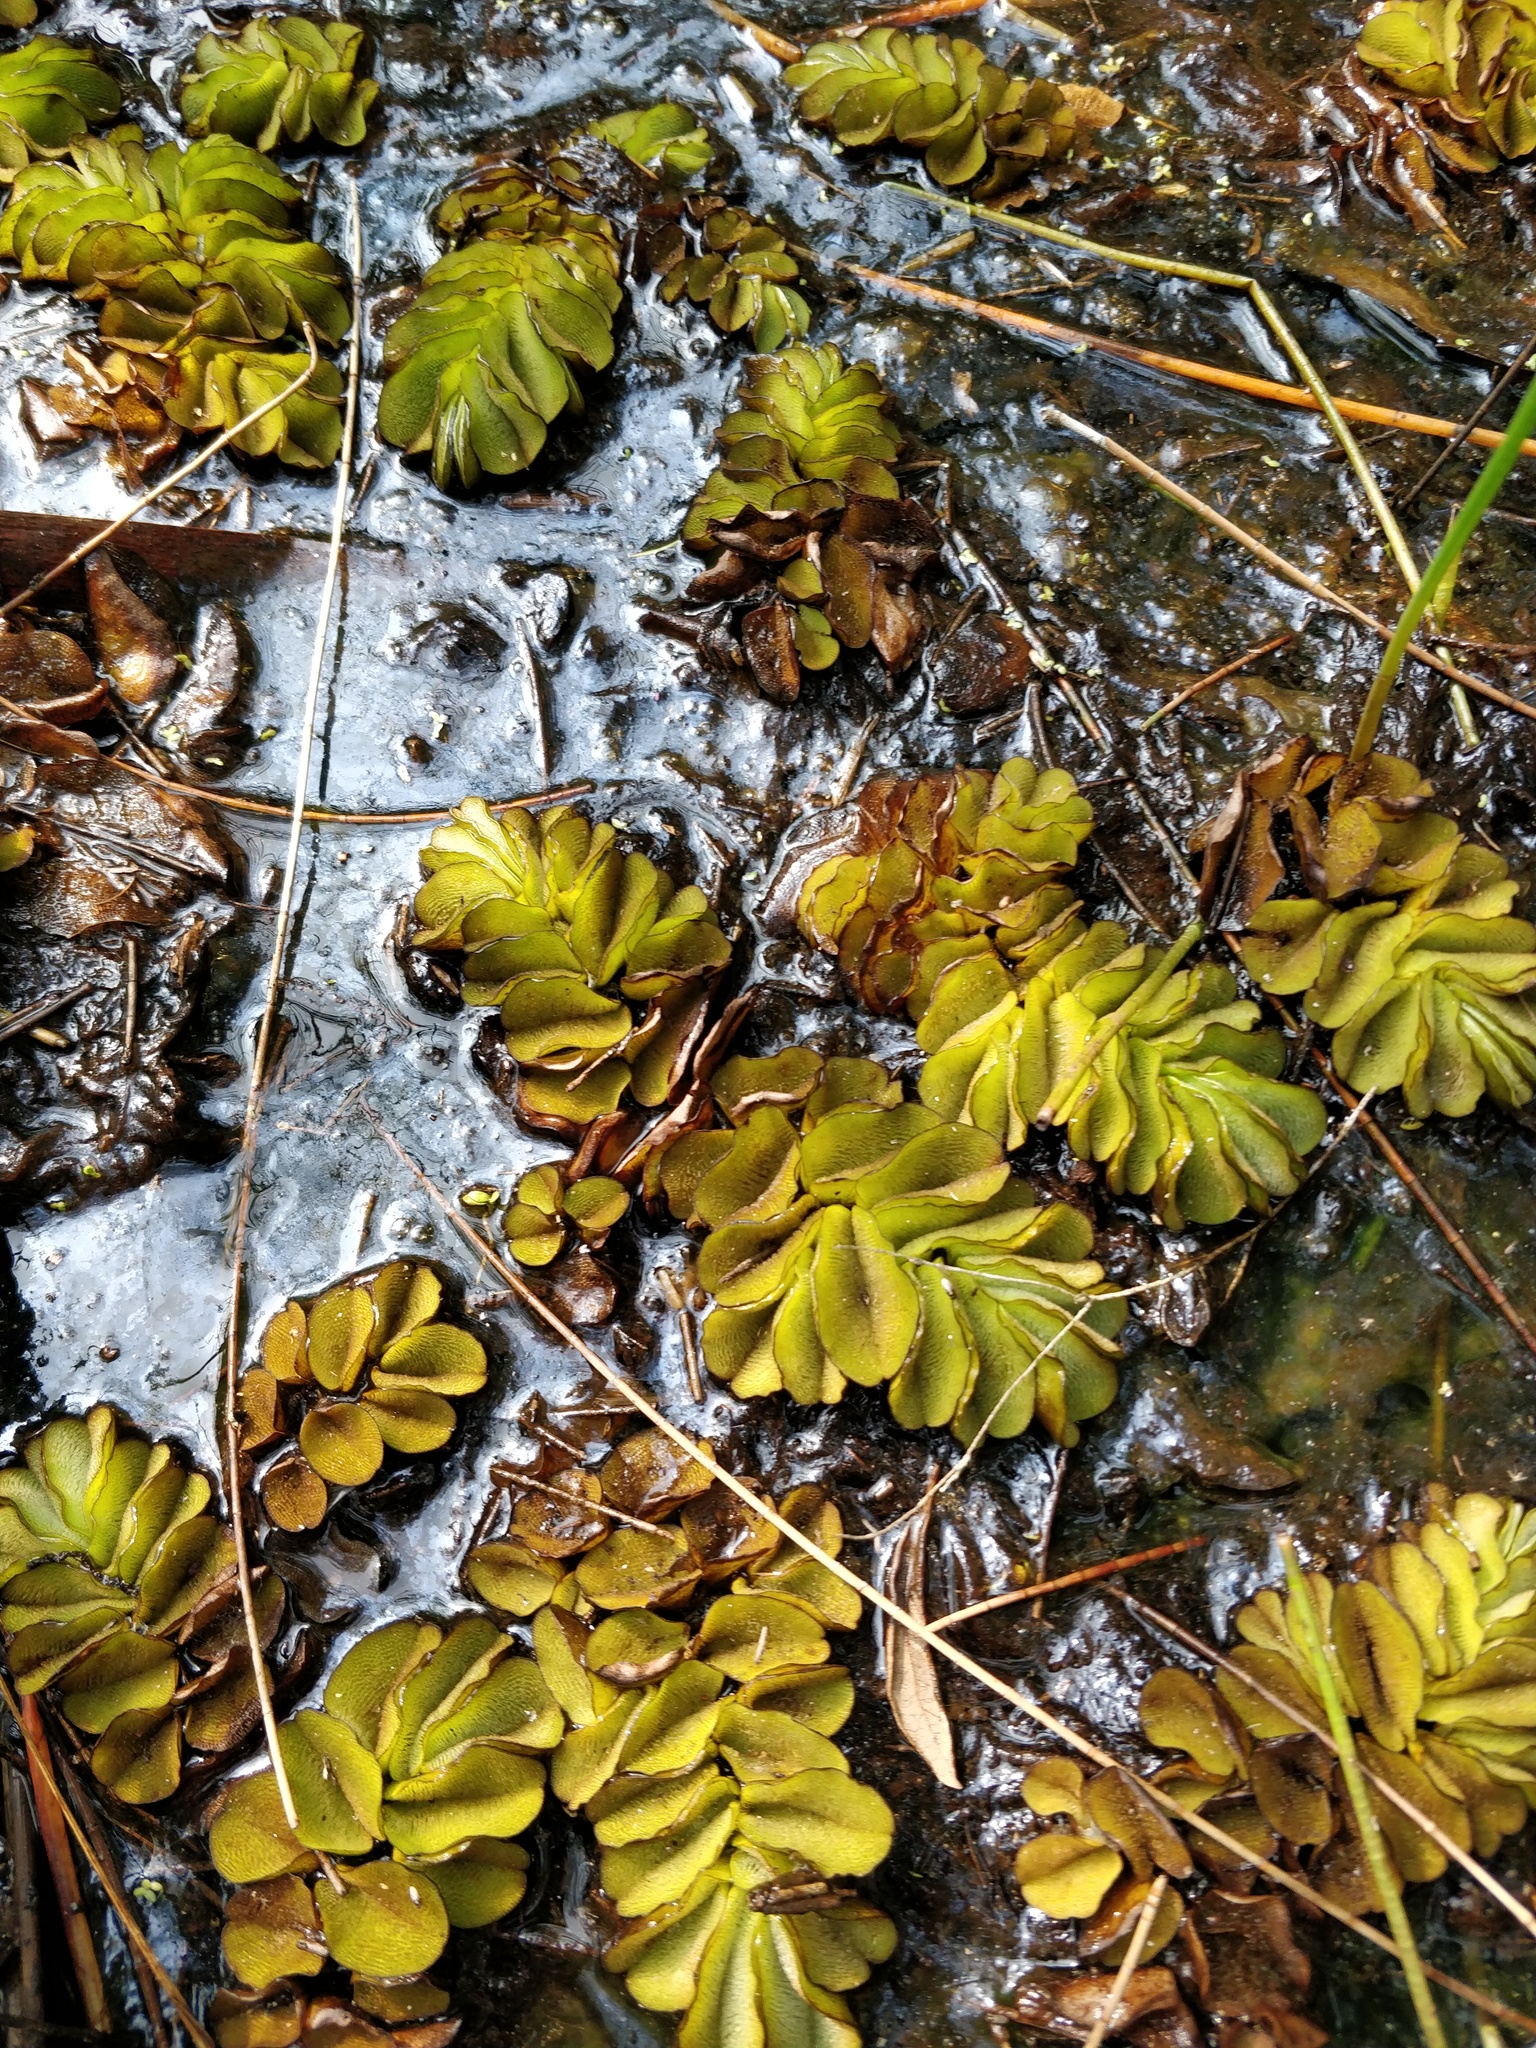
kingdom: Plantae
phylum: Tracheophyta
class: Polypodiopsida
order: Salviniales
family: Salviniaceae
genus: Salvinia
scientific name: Salvinia molesta
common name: Kariba weed
